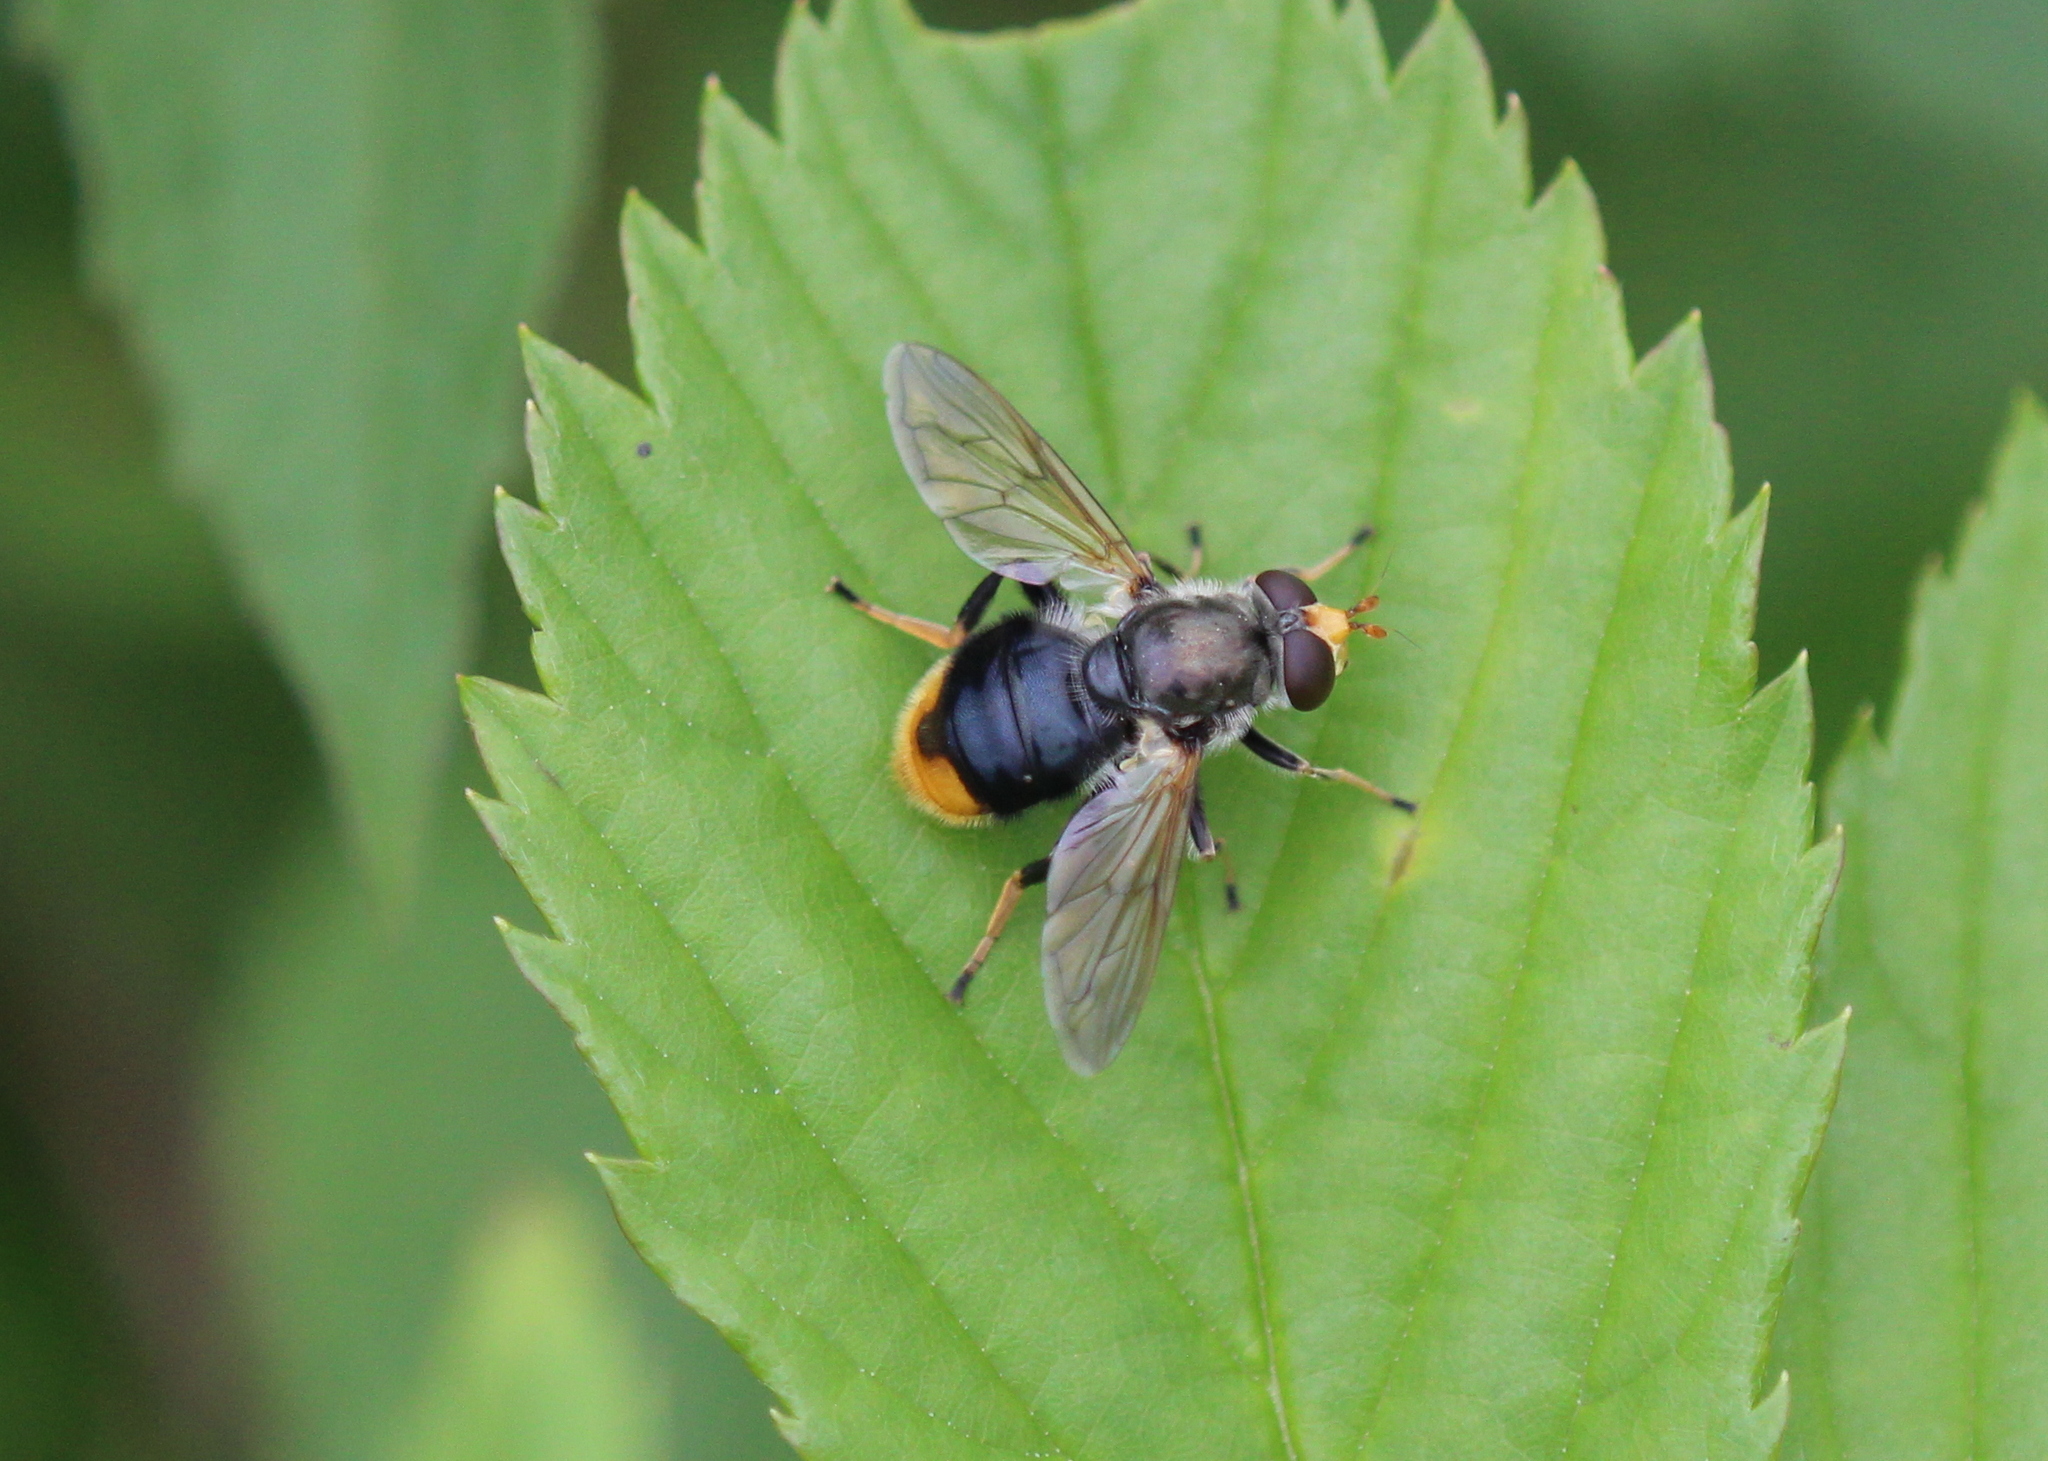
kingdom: Animalia
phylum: Arthropoda
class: Insecta
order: Diptera
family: Syrphidae
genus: Blera
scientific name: Blera analis
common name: Orange-tailed wood fly
